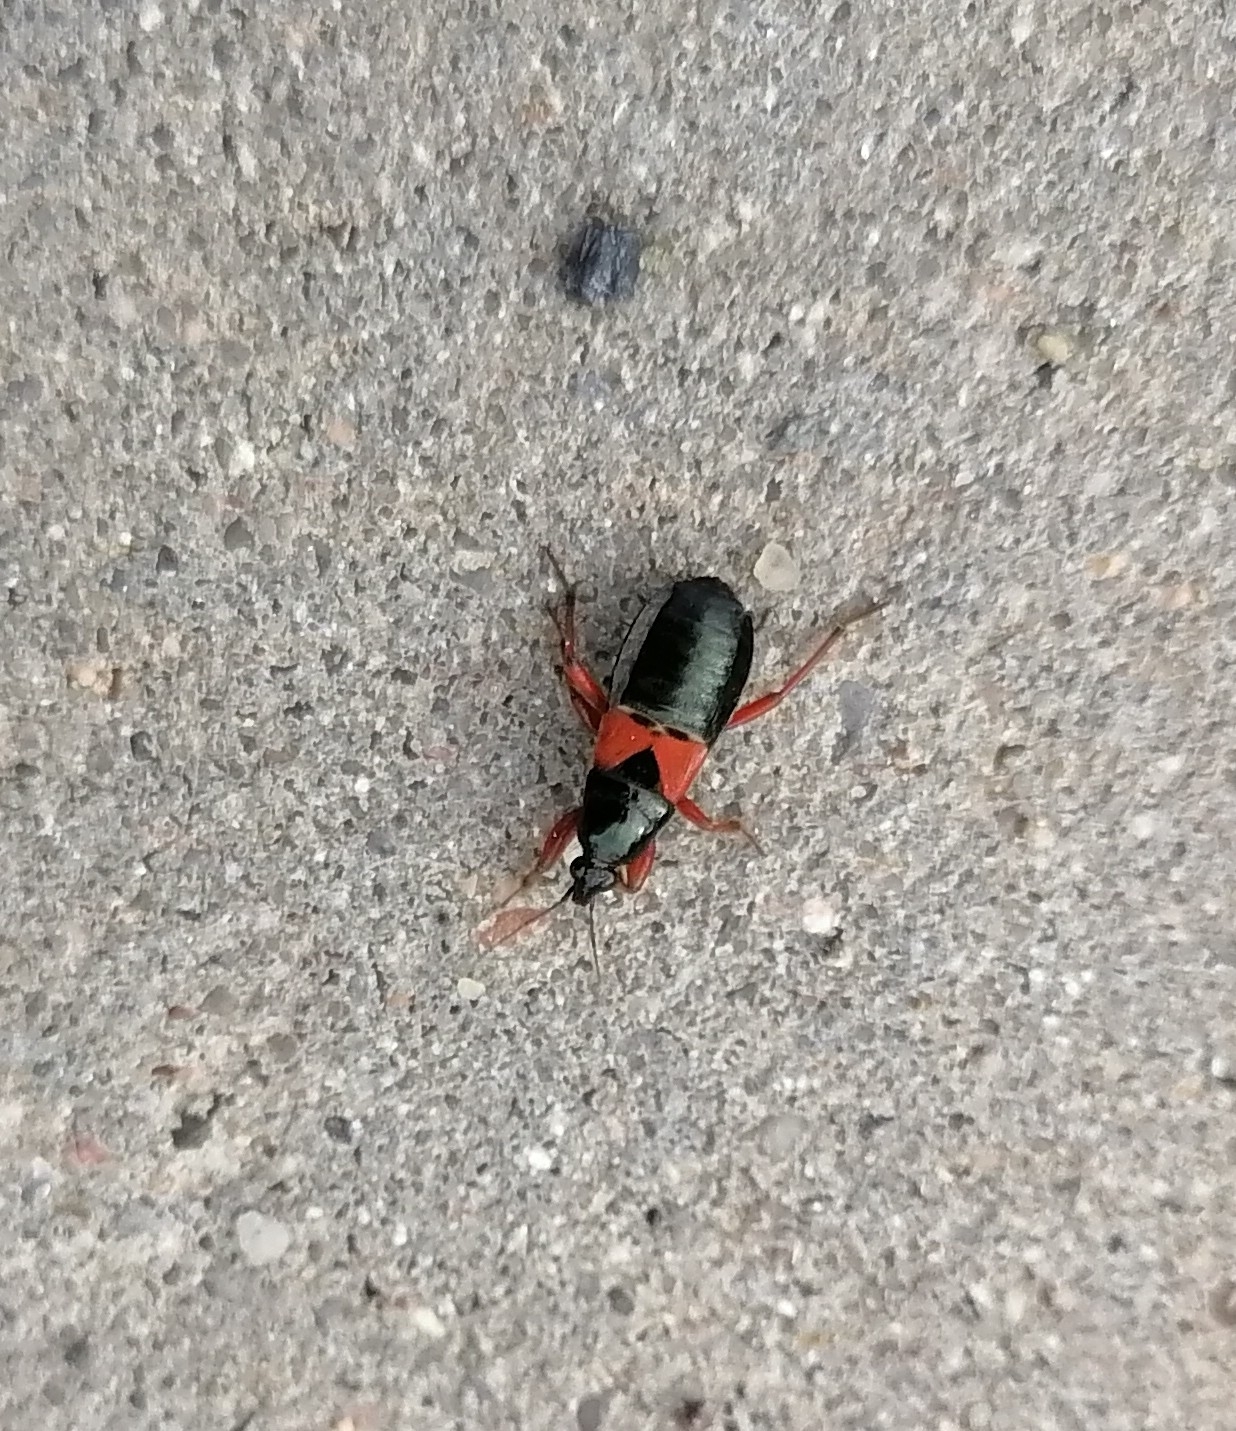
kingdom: Animalia
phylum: Arthropoda
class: Insecta
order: Hemiptera
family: Nabidae
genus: Prostemma
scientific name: Prostemma guttula
